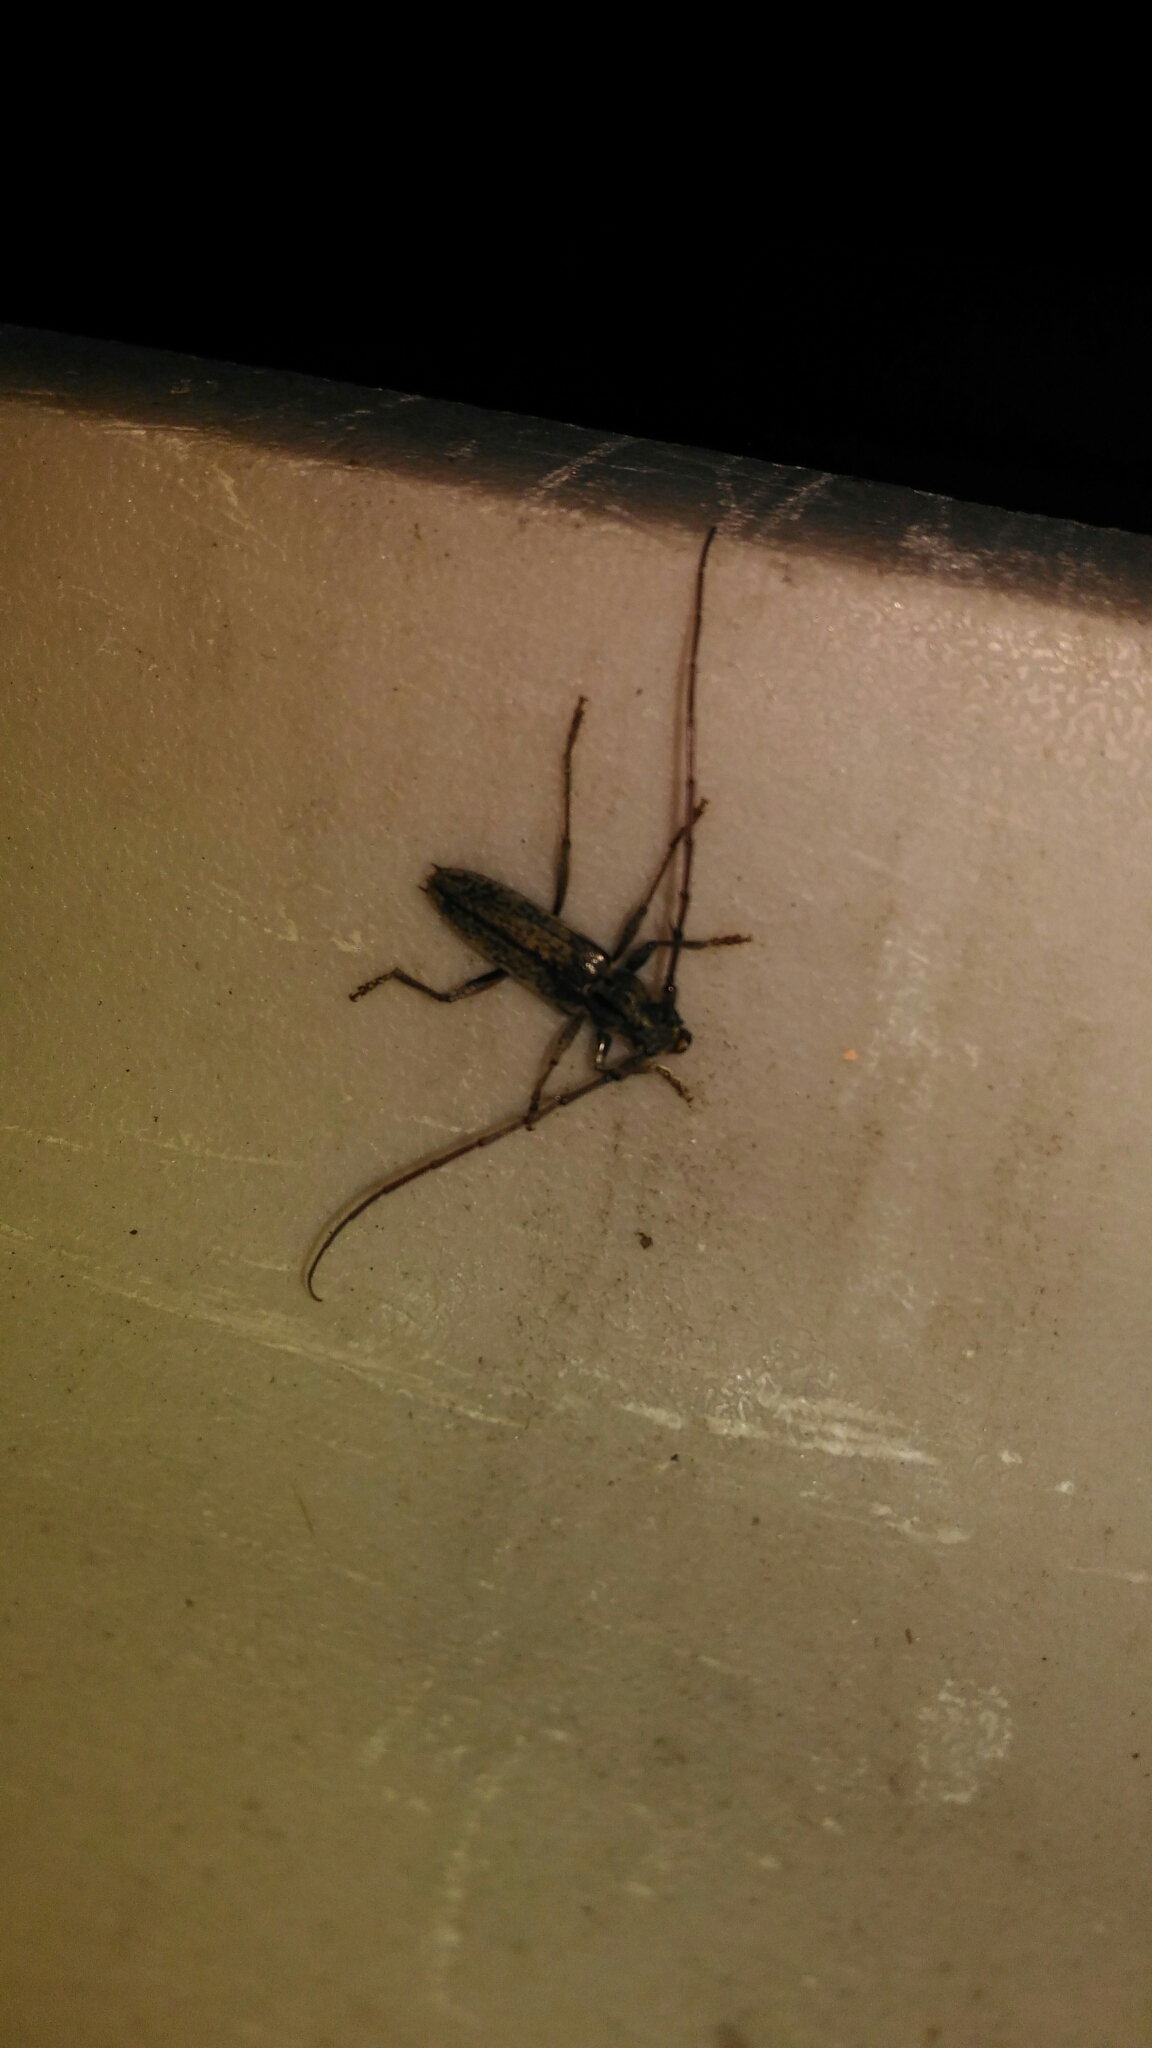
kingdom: Animalia
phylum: Arthropoda
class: Insecta
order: Coleoptera
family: Cerambycidae
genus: Elaphidion
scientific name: Elaphidion mucronatum
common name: Spined oak borer
